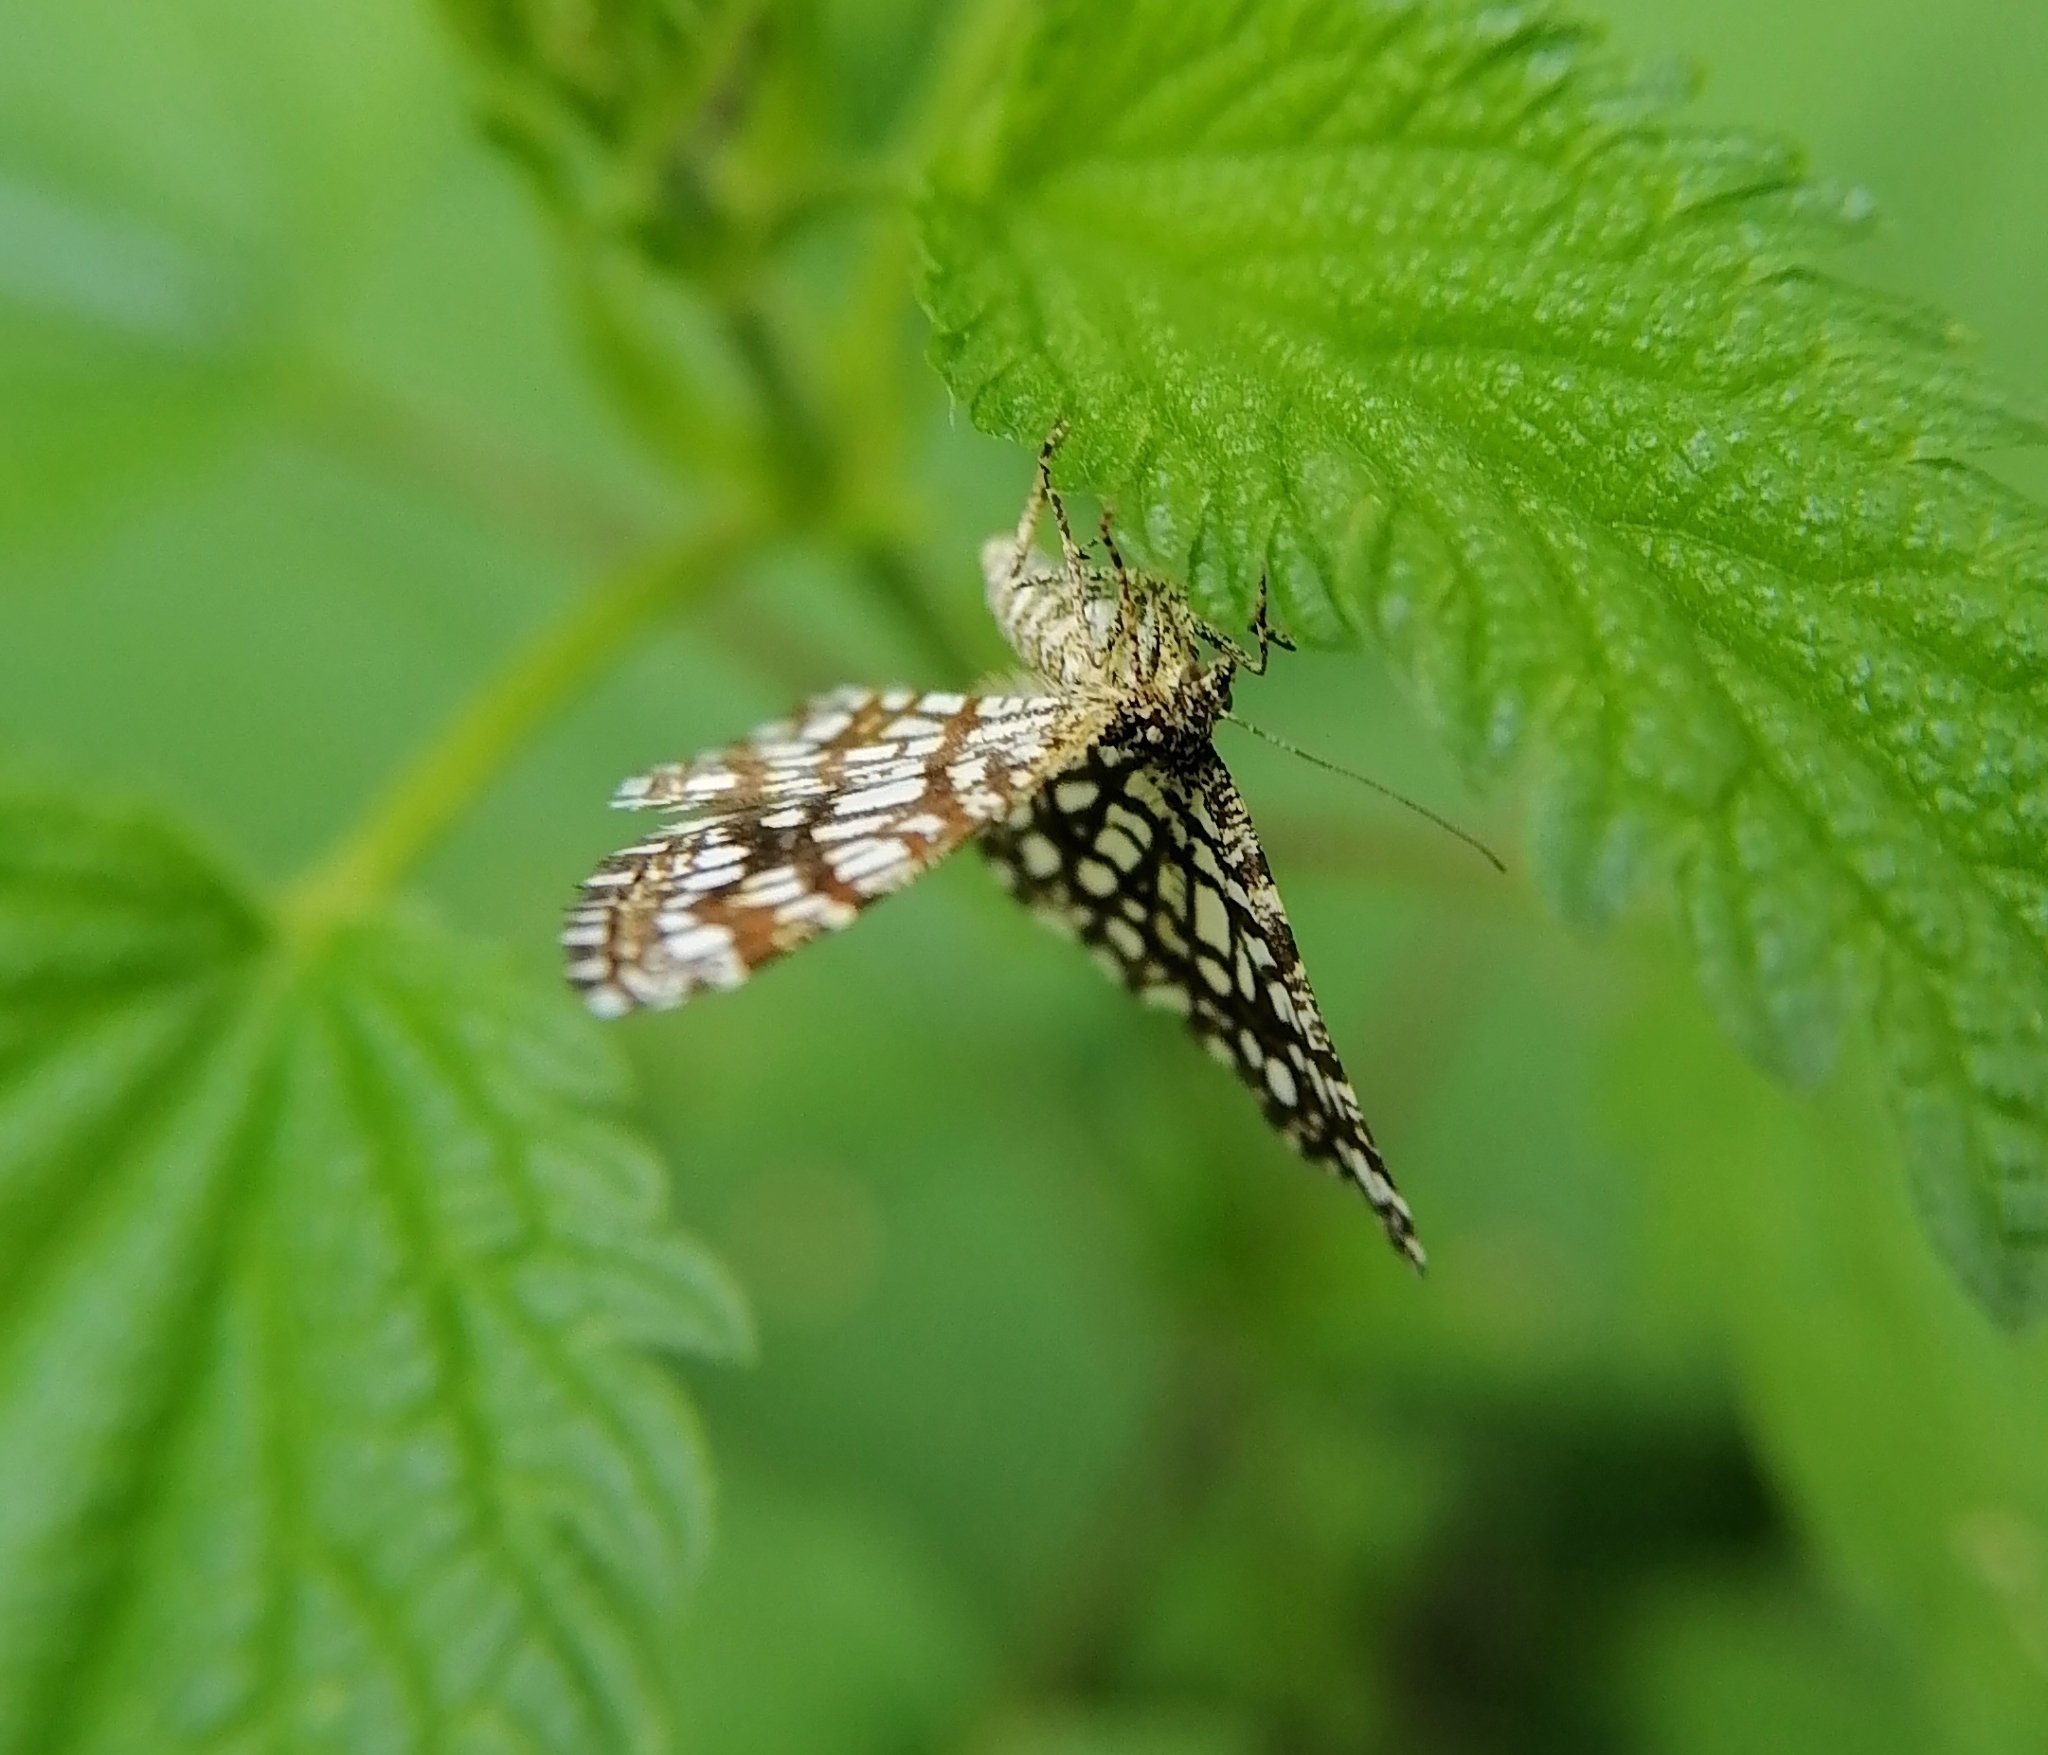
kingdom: Animalia
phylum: Arthropoda
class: Insecta
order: Lepidoptera
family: Geometridae
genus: Chiasmia
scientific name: Chiasmia clathrata
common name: Latticed heath
